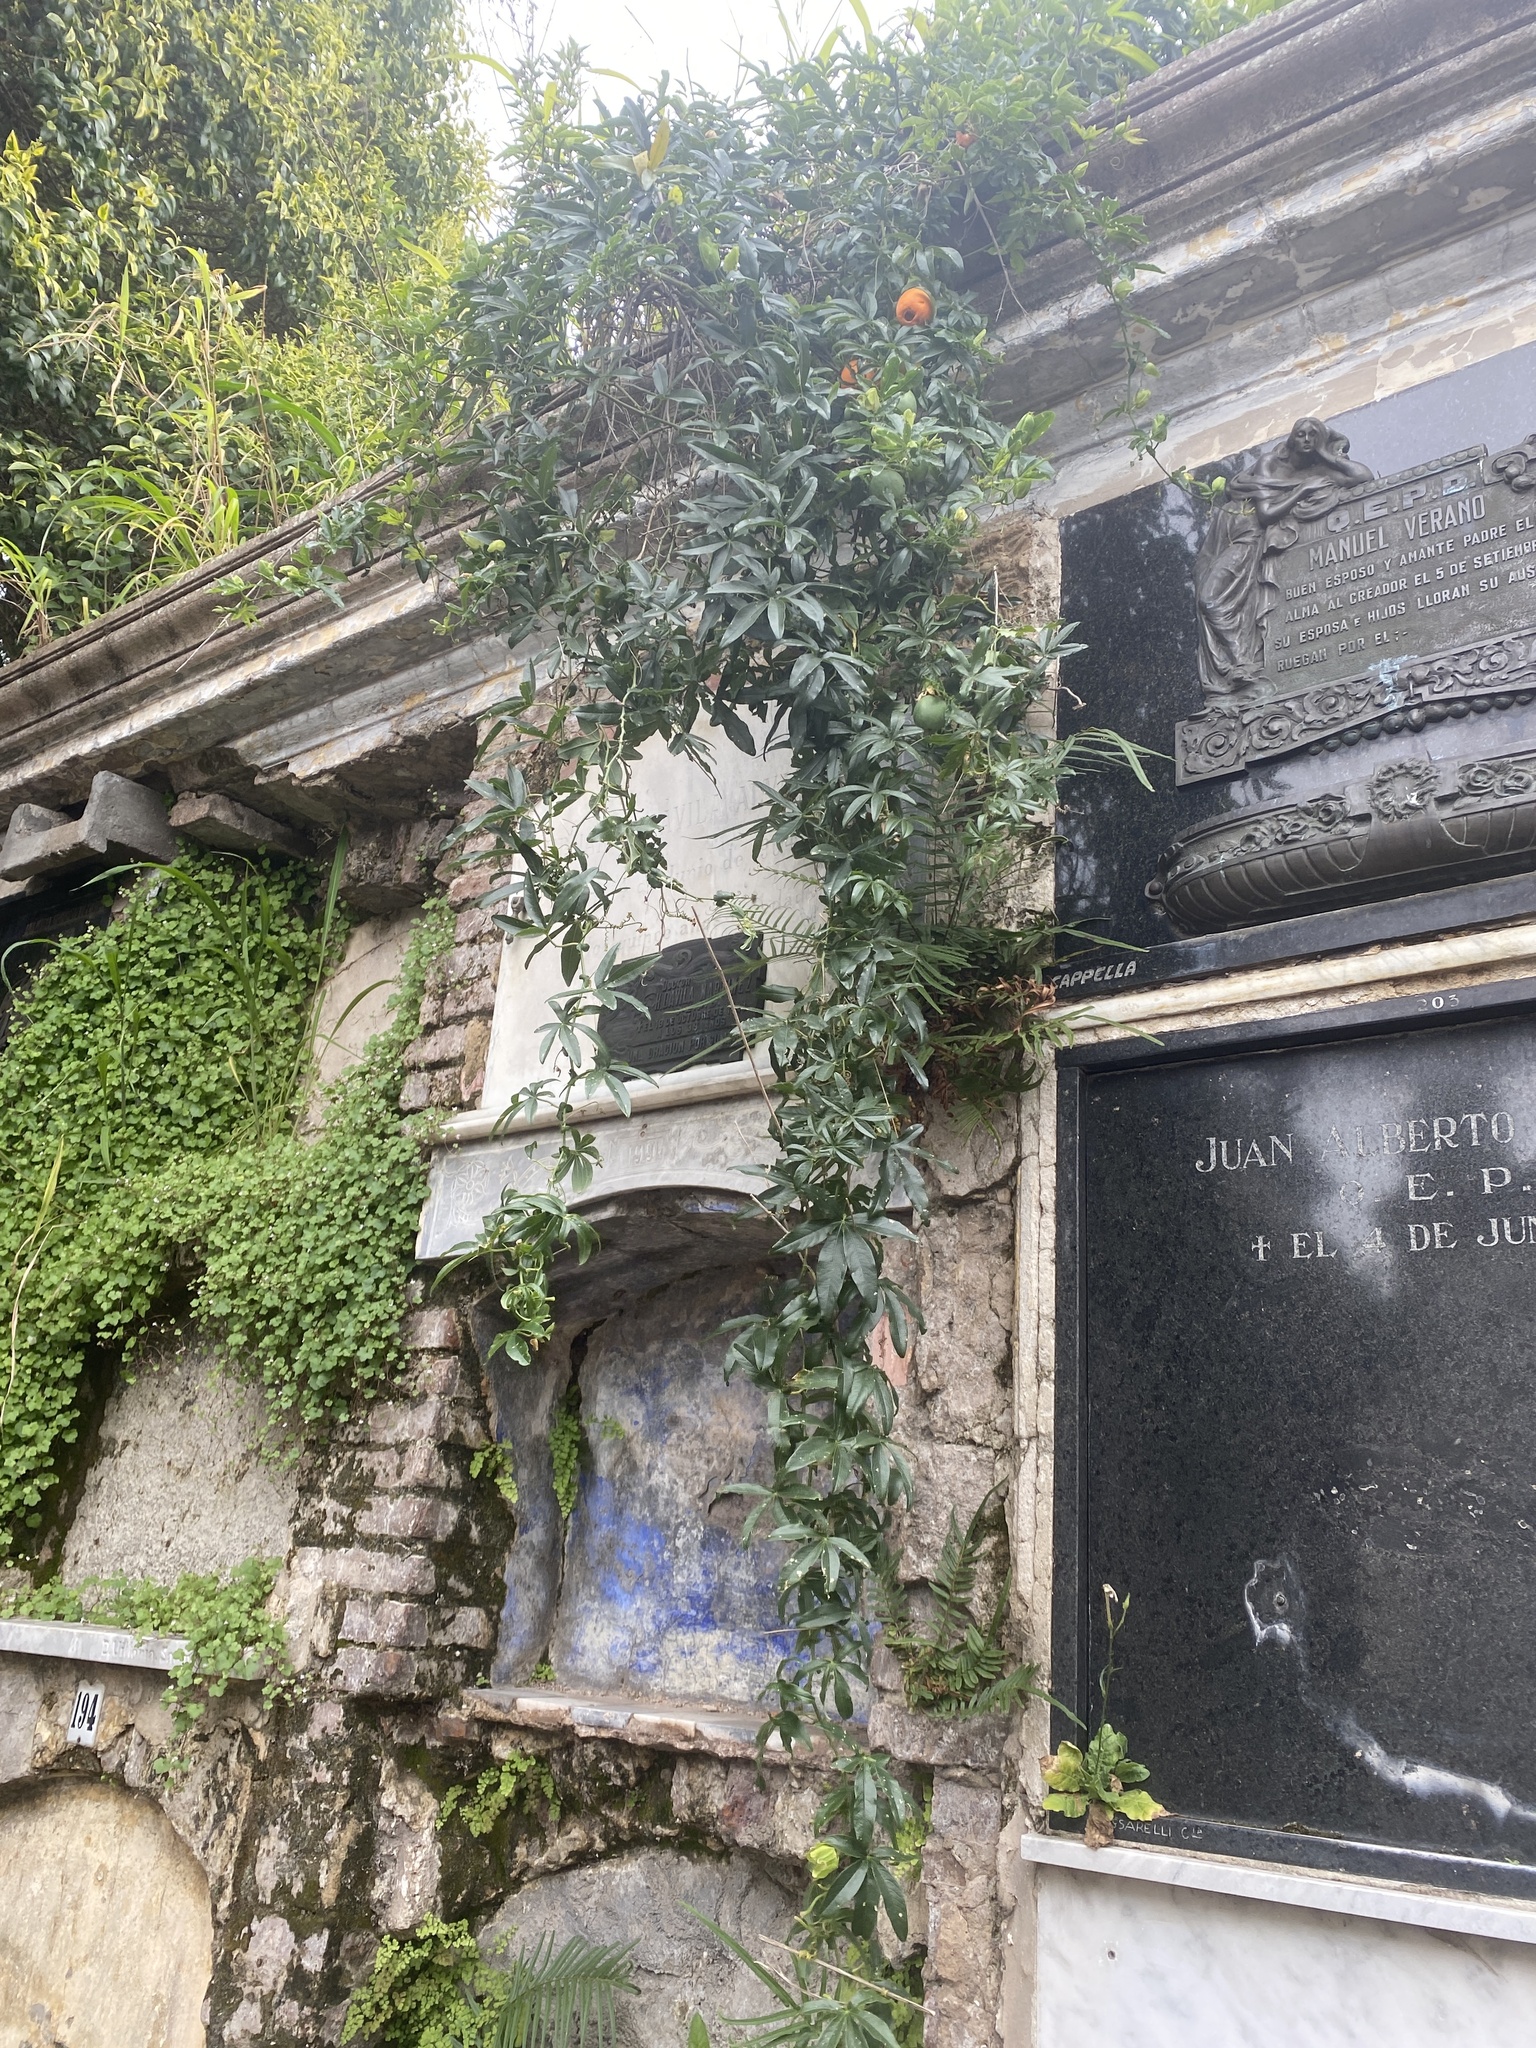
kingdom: Plantae
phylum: Tracheophyta
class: Magnoliopsida
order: Malpighiales
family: Passifloraceae
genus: Passiflora
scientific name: Passiflora caerulea
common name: Blue passionflower
